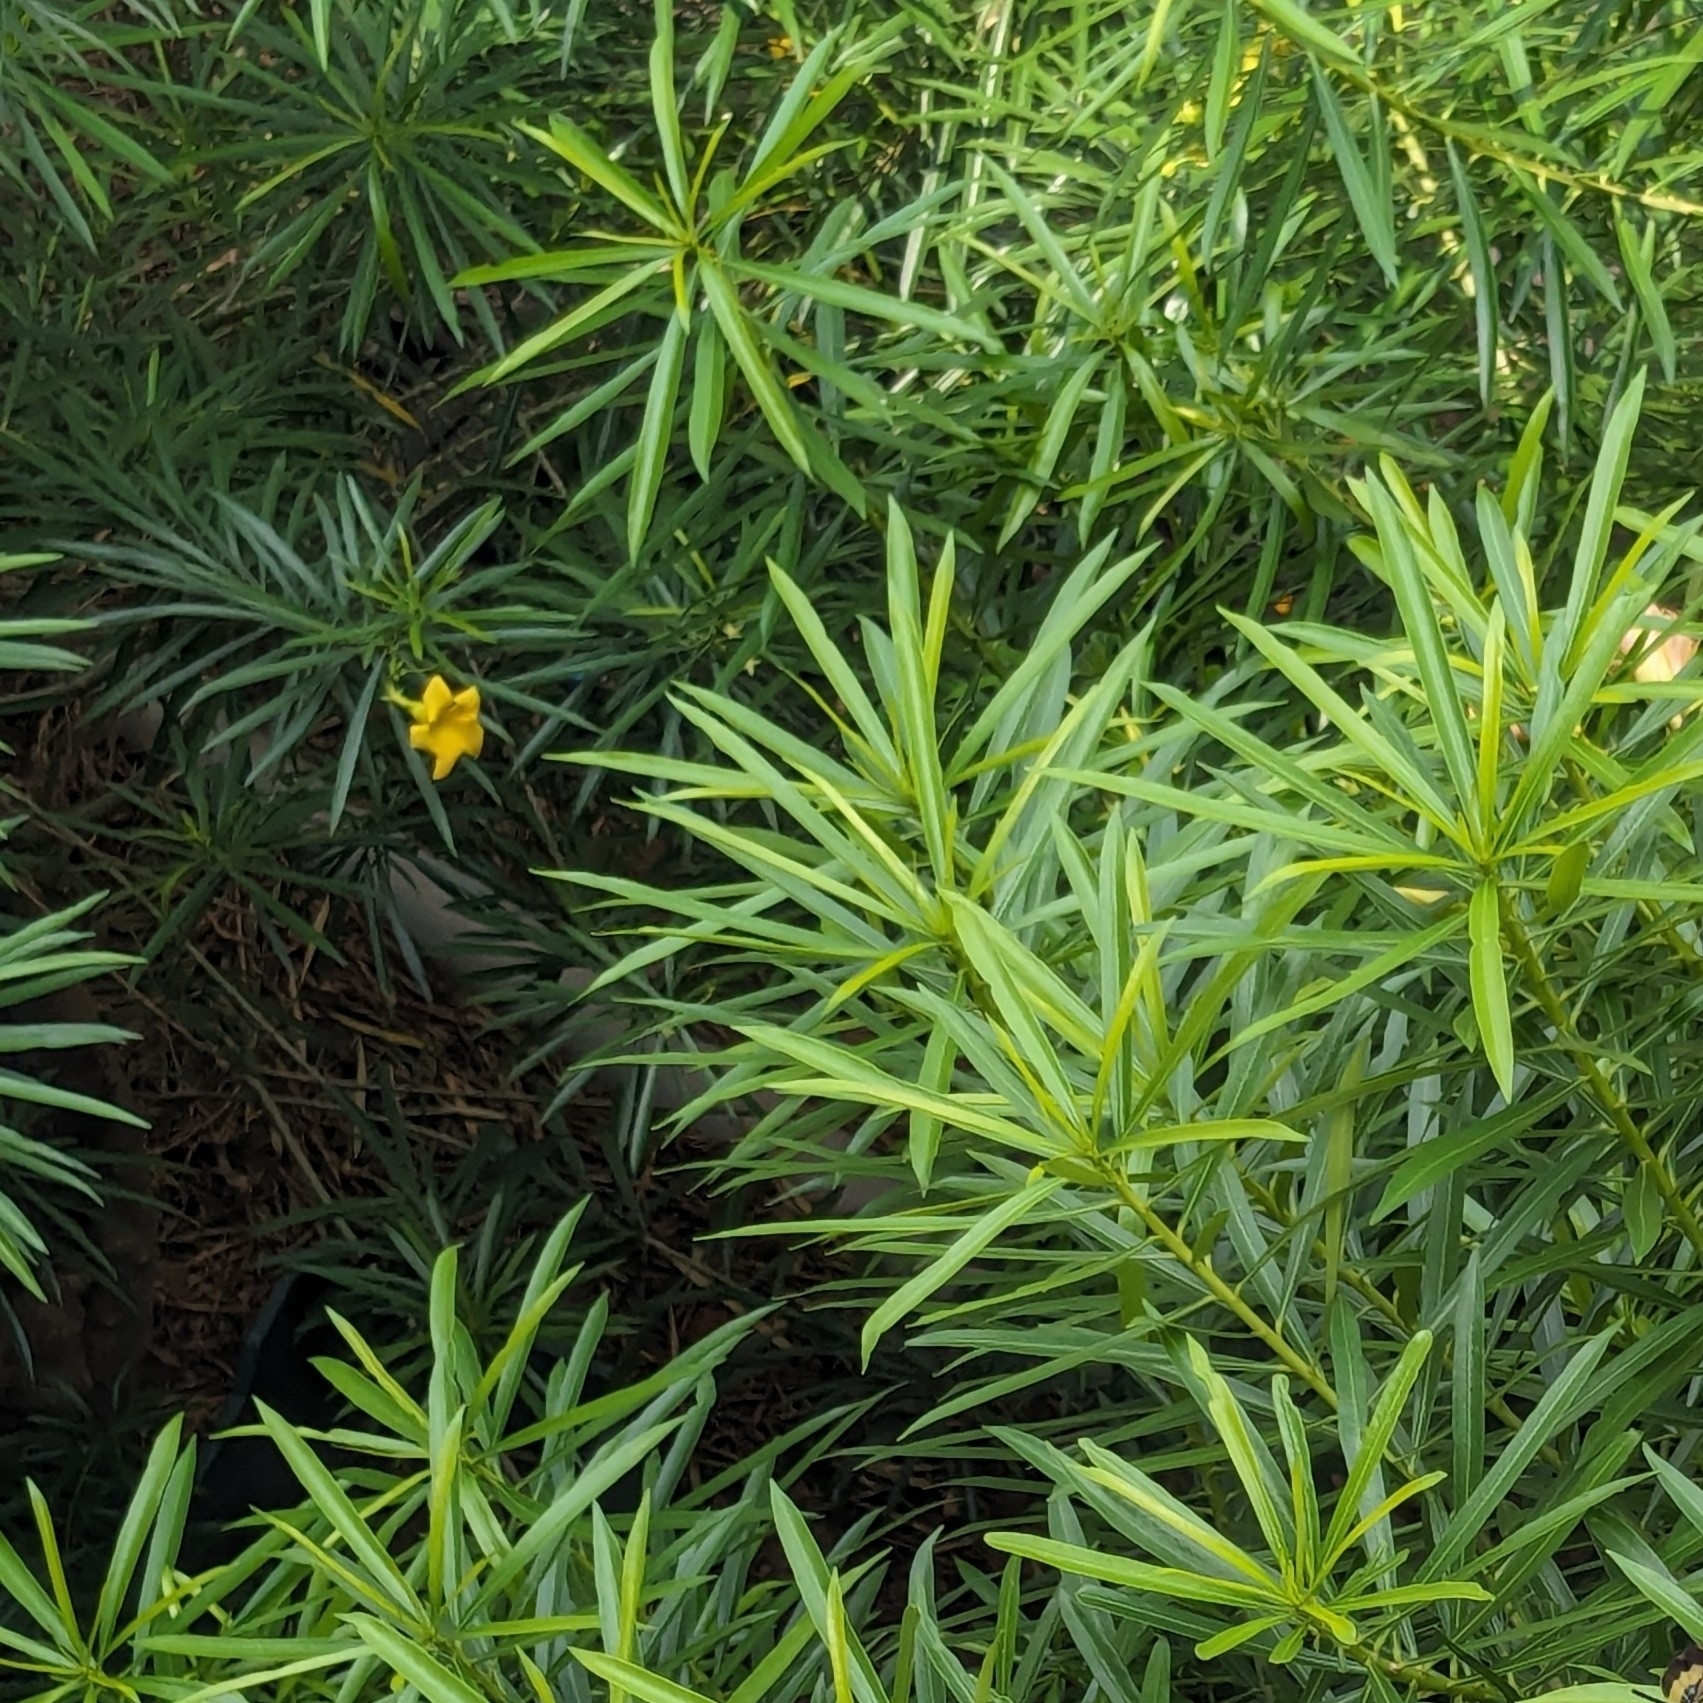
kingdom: Plantae
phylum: Tracheophyta
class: Magnoliopsida
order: Gentianales
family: Apocynaceae
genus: Cascabela
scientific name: Cascabela thevetia
